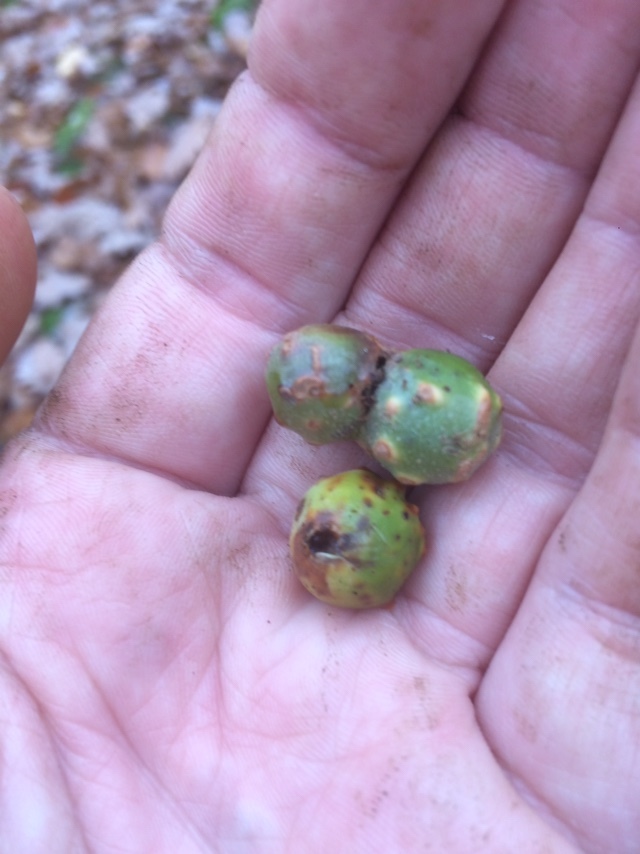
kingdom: Animalia
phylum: Arthropoda
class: Insecta
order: Hymenoptera
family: Cynipidae
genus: Andricus
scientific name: Andricus infectorius
